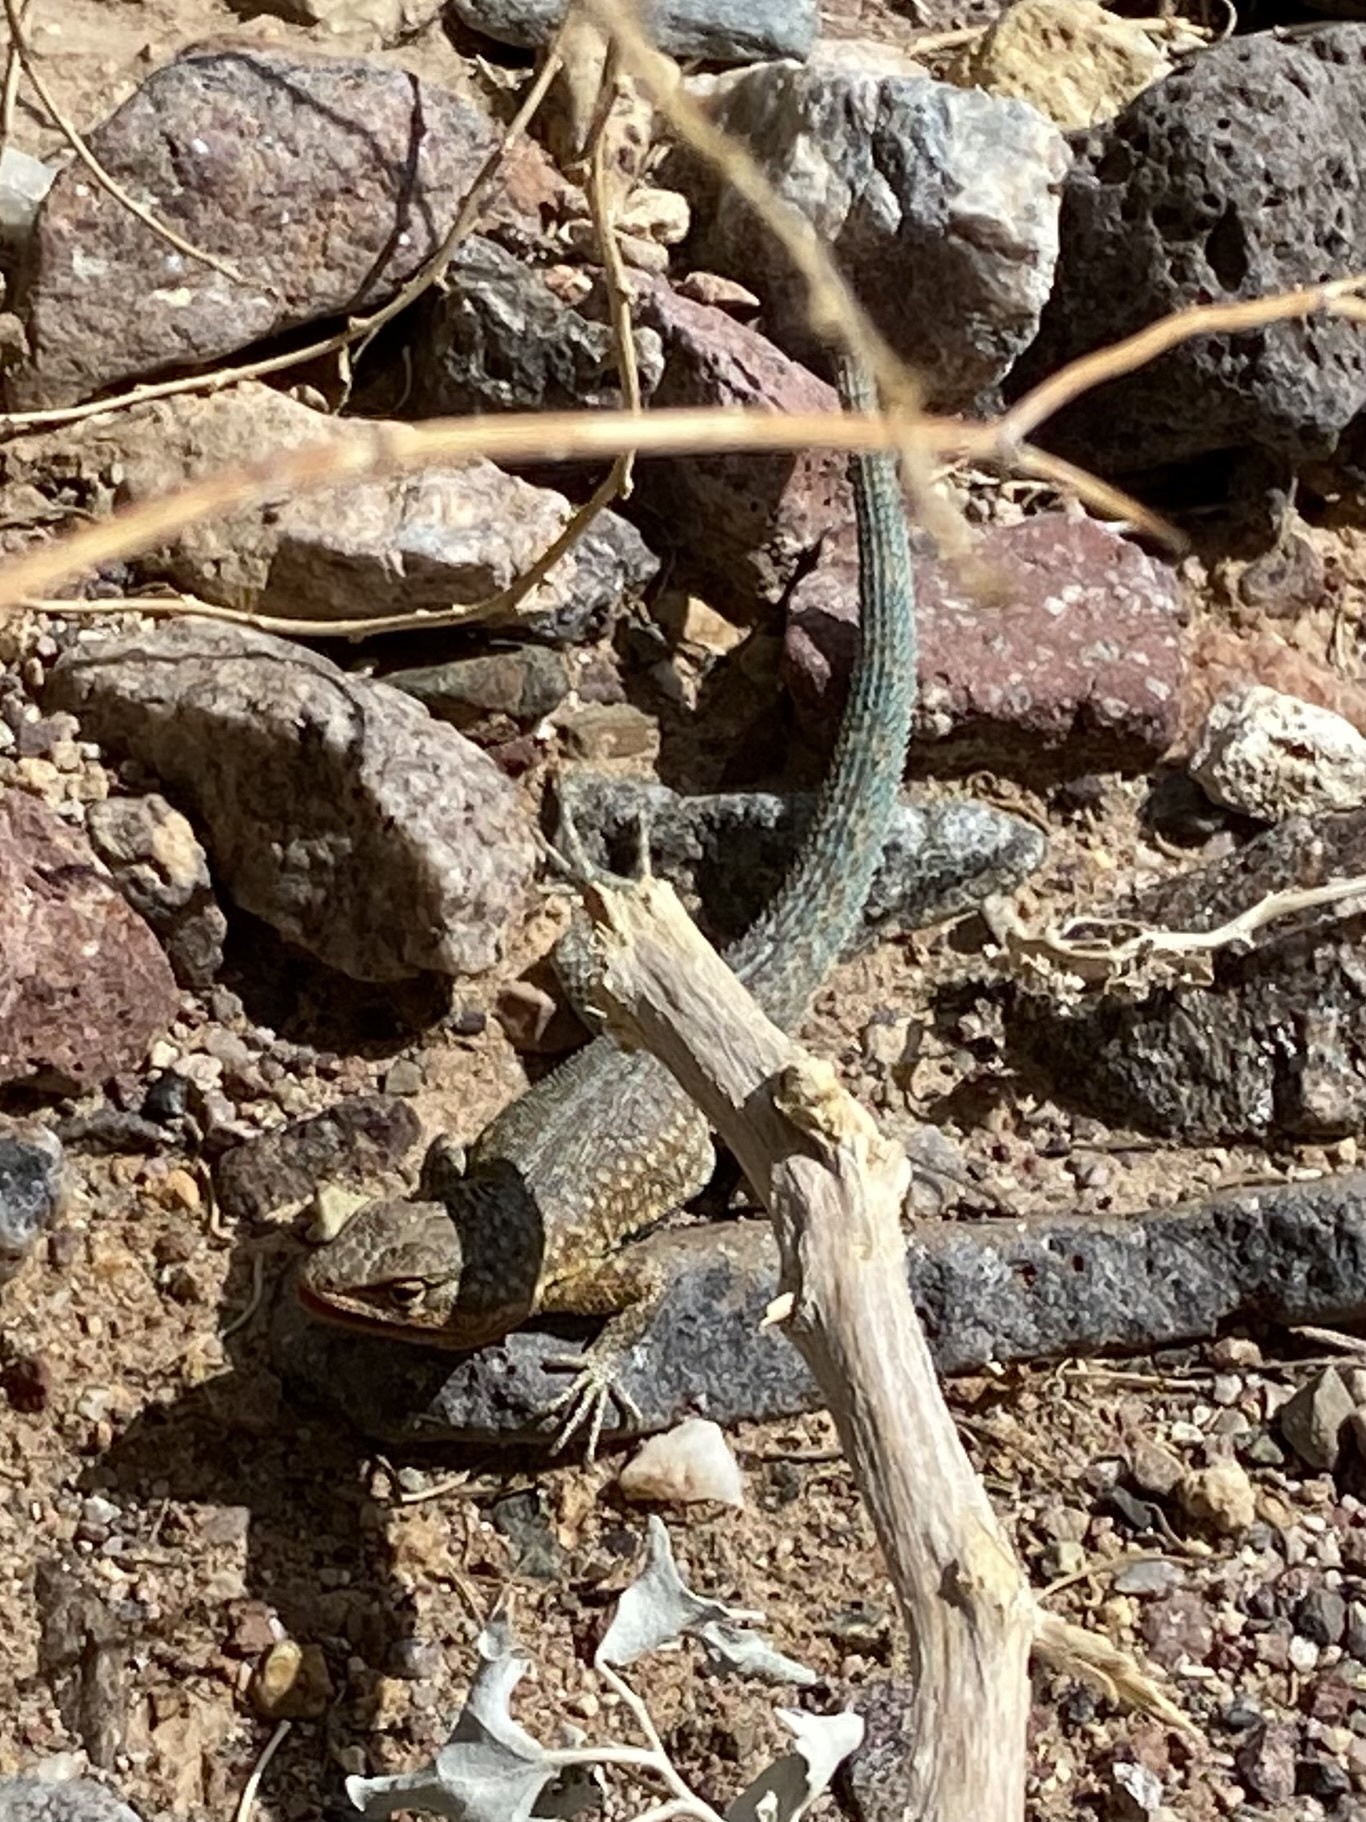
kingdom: Animalia
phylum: Chordata
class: Squamata
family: Phrynosomatidae
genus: Uta
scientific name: Uta stansburiana
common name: Side-blotched lizard
